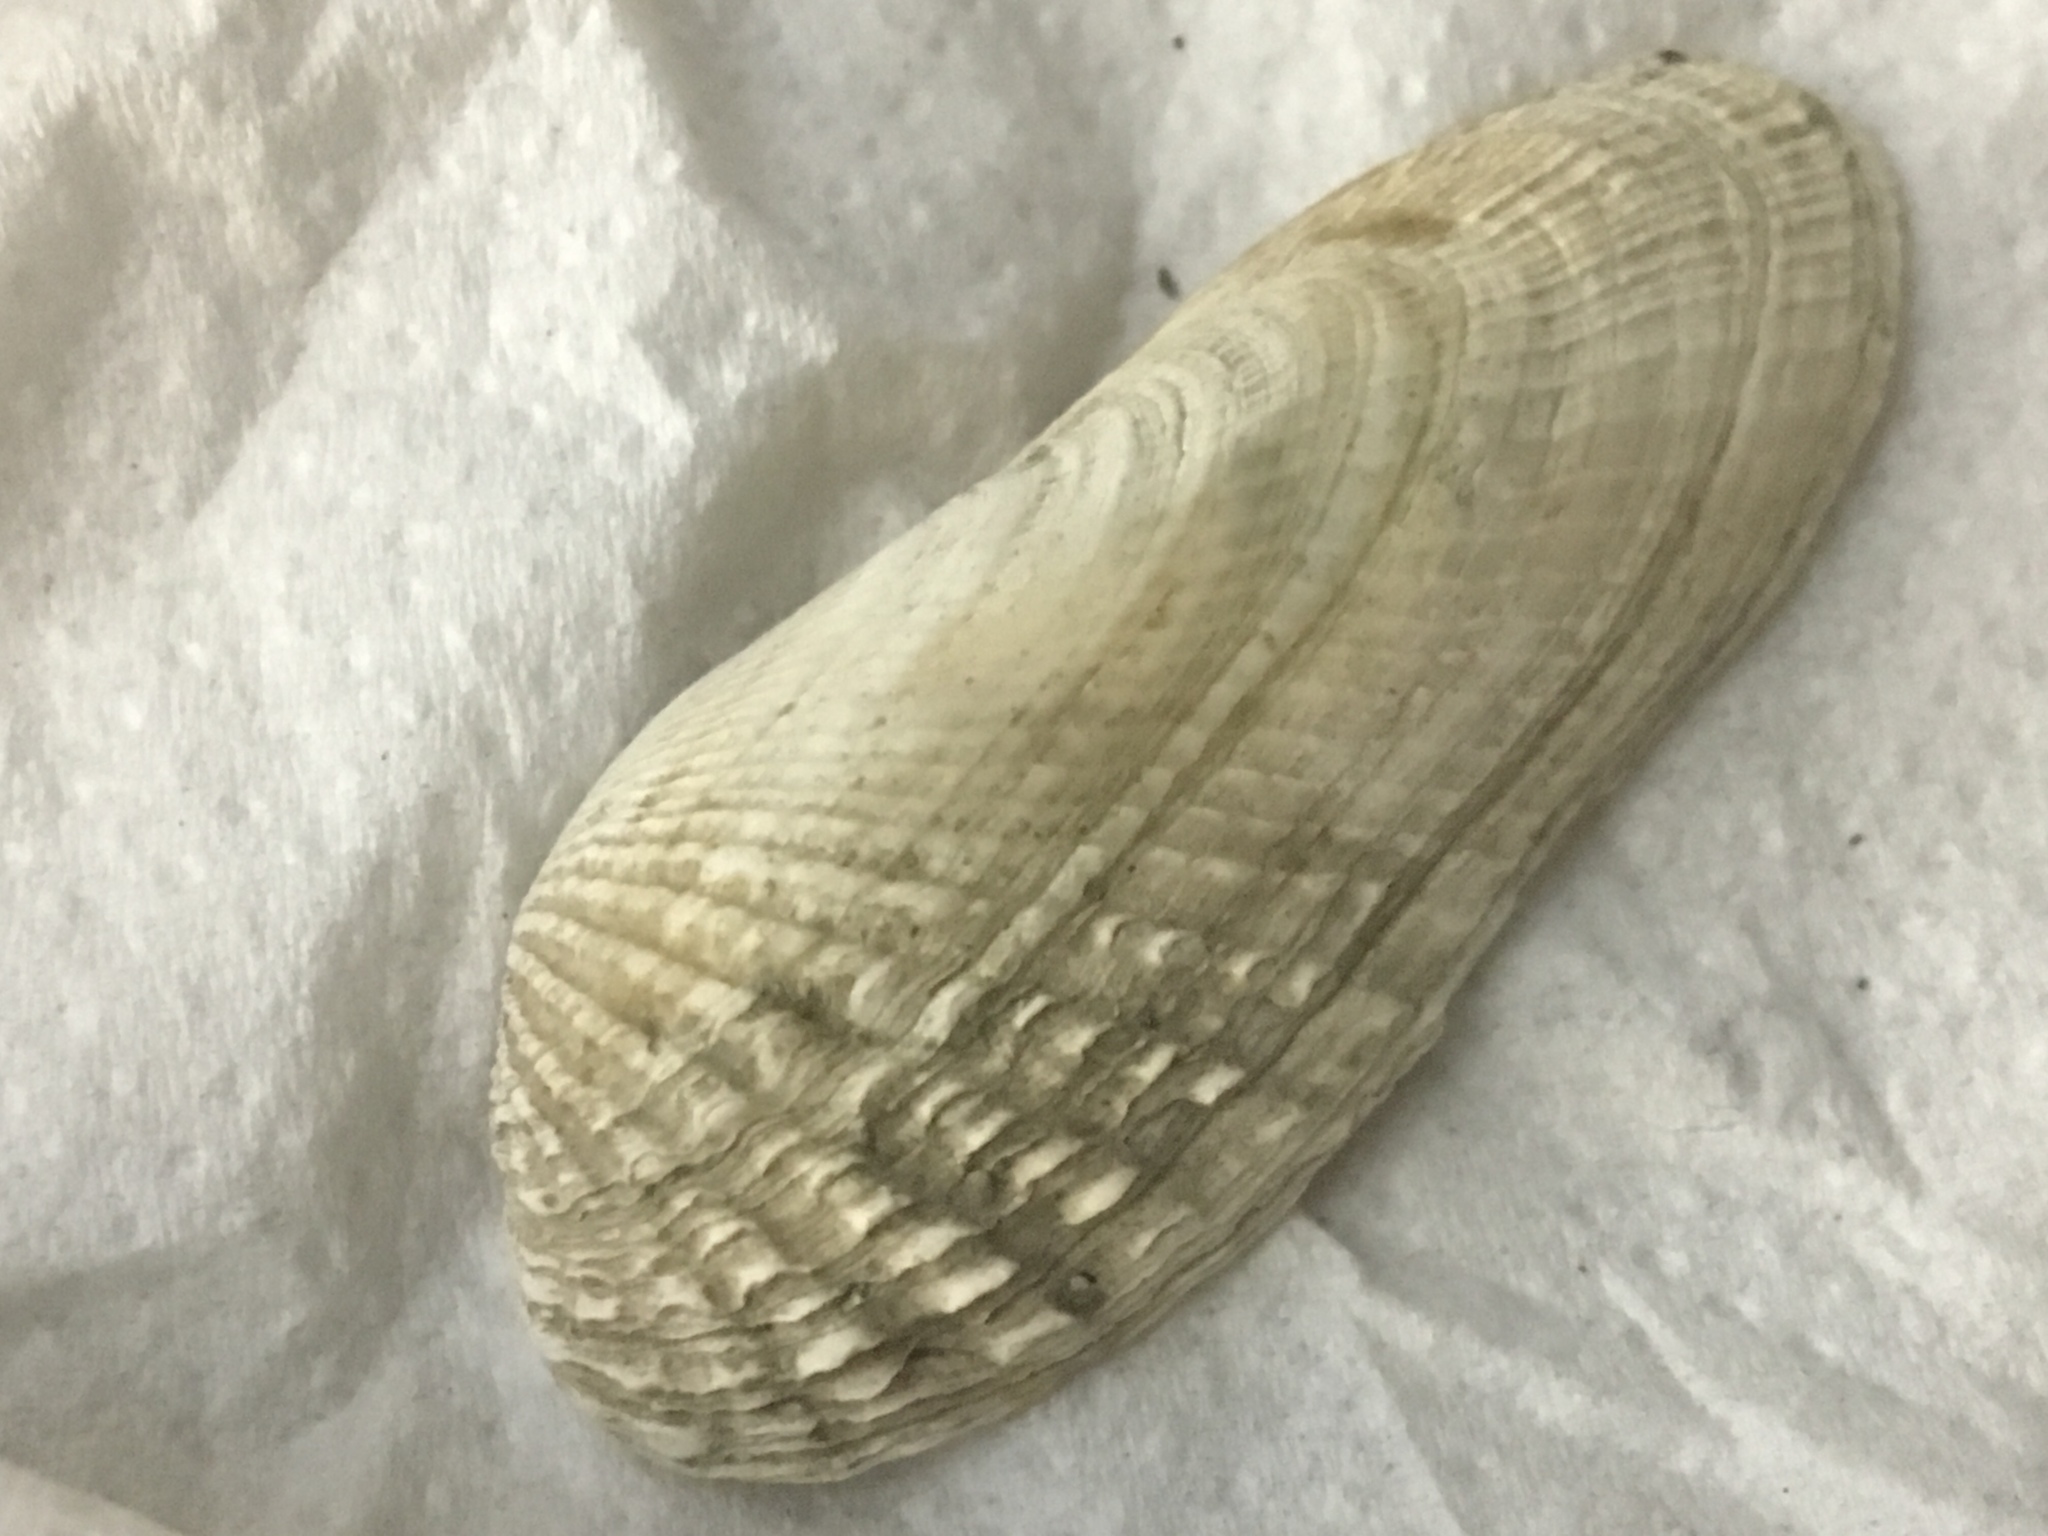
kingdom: Animalia
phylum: Mollusca
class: Bivalvia
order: Venerida
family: Veneridae
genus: Petricolaria
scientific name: Petricolaria pholadiformis
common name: American piddock
